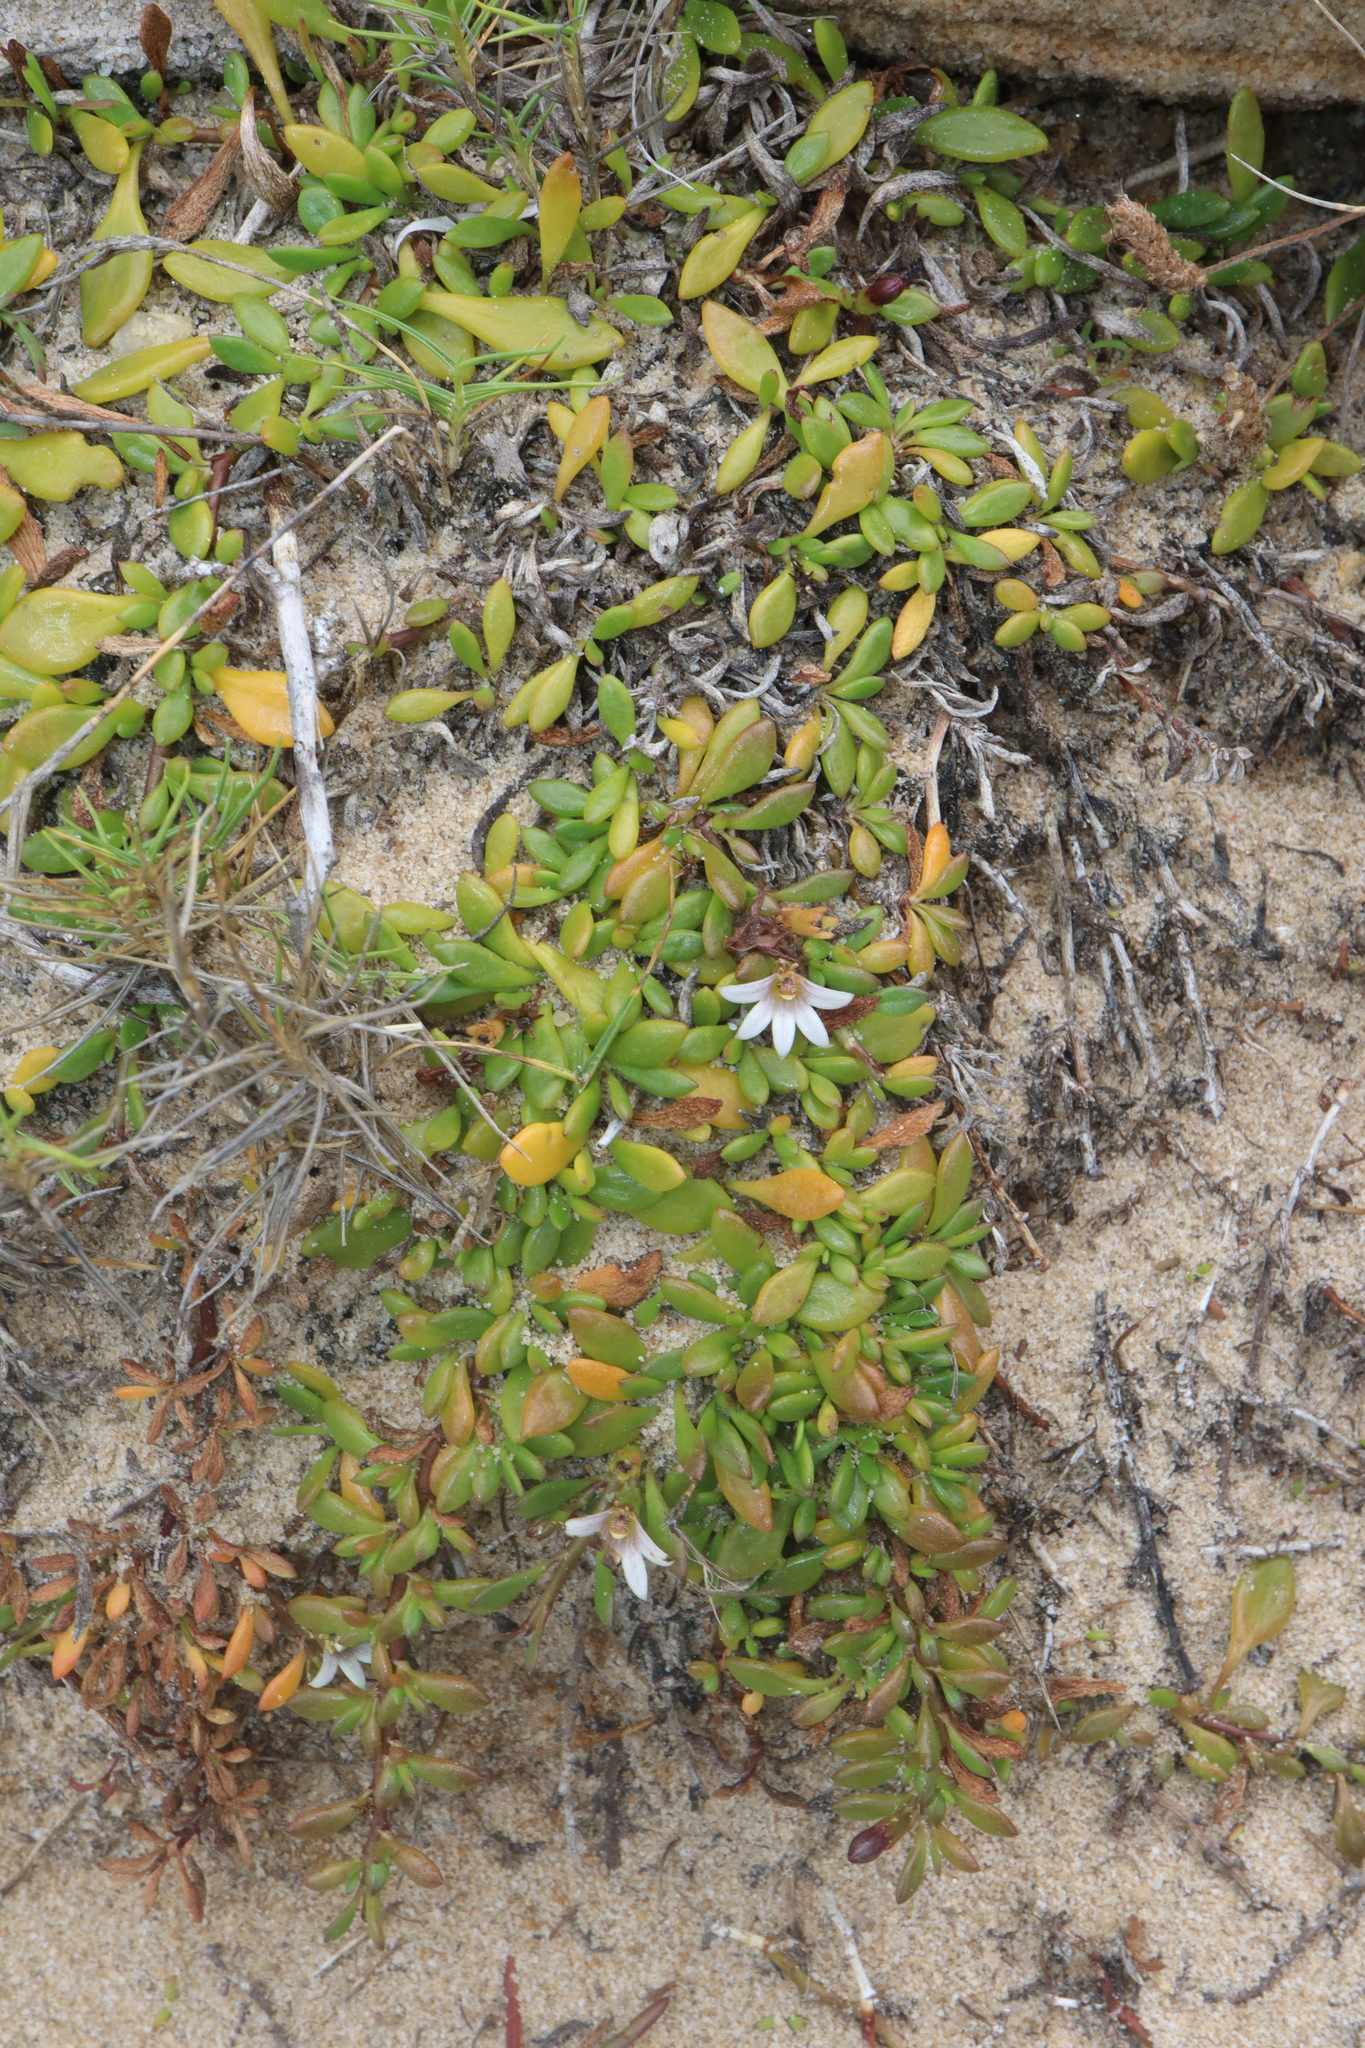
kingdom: Plantae
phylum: Tracheophyta
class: Magnoliopsida
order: Asterales
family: Goodeniaceae
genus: Goodenia
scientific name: Goodenia radicans
